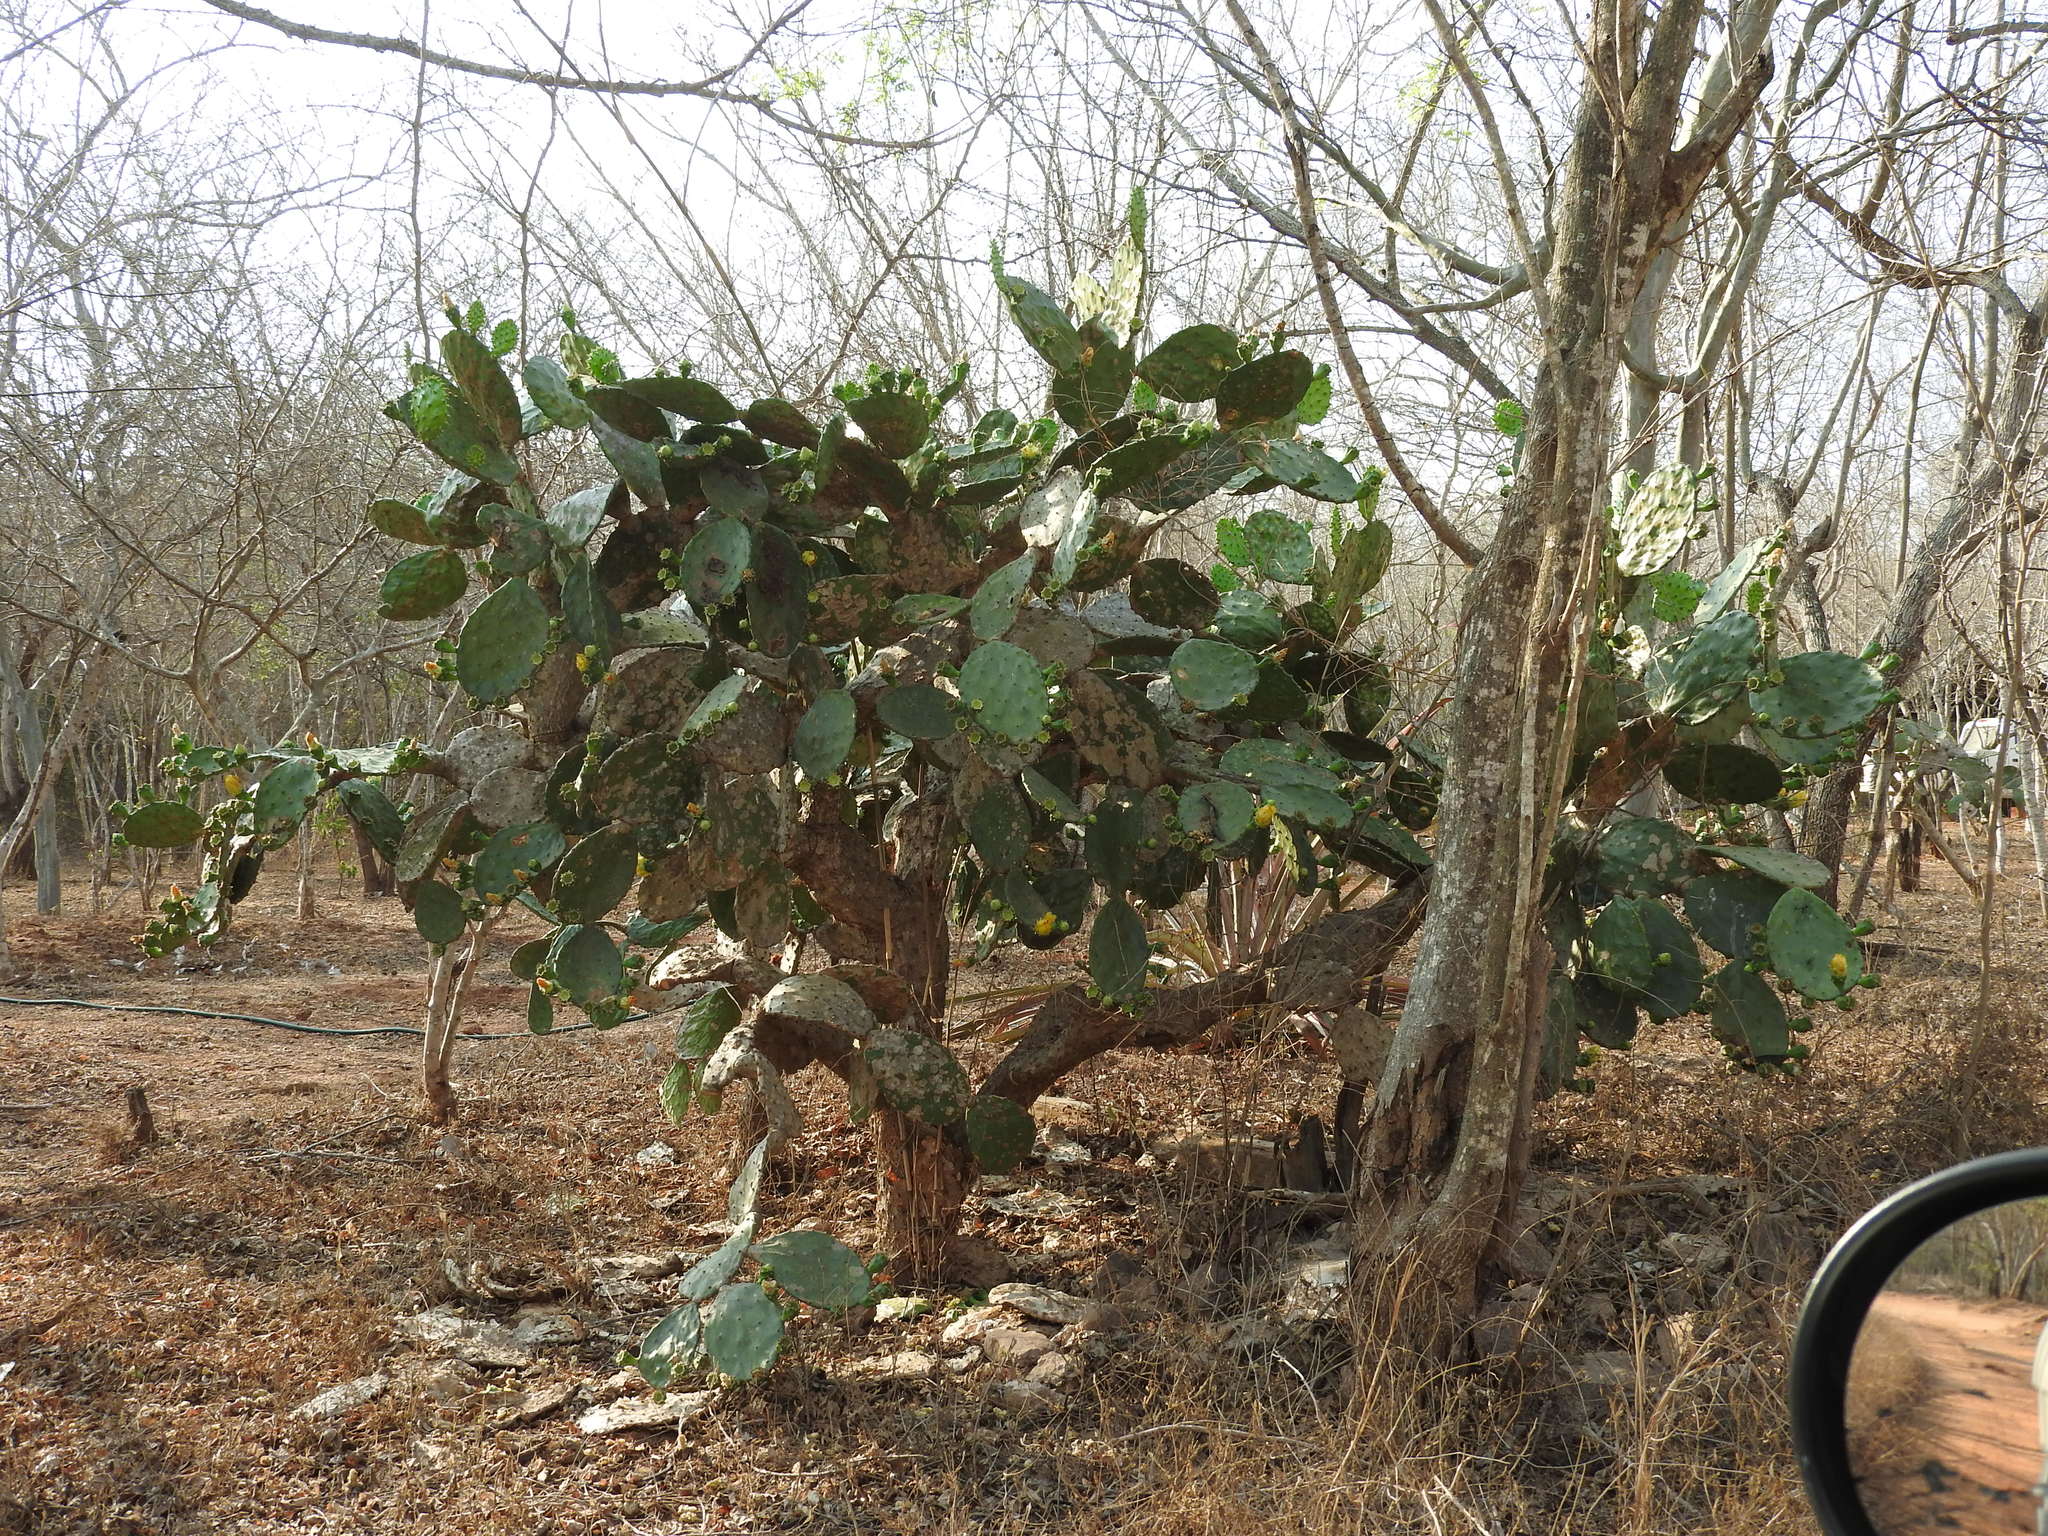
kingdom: Plantae
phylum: Tracheophyta
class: Magnoliopsida
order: Caryophyllales
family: Cactaceae
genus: Opuntia
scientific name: Opuntia
